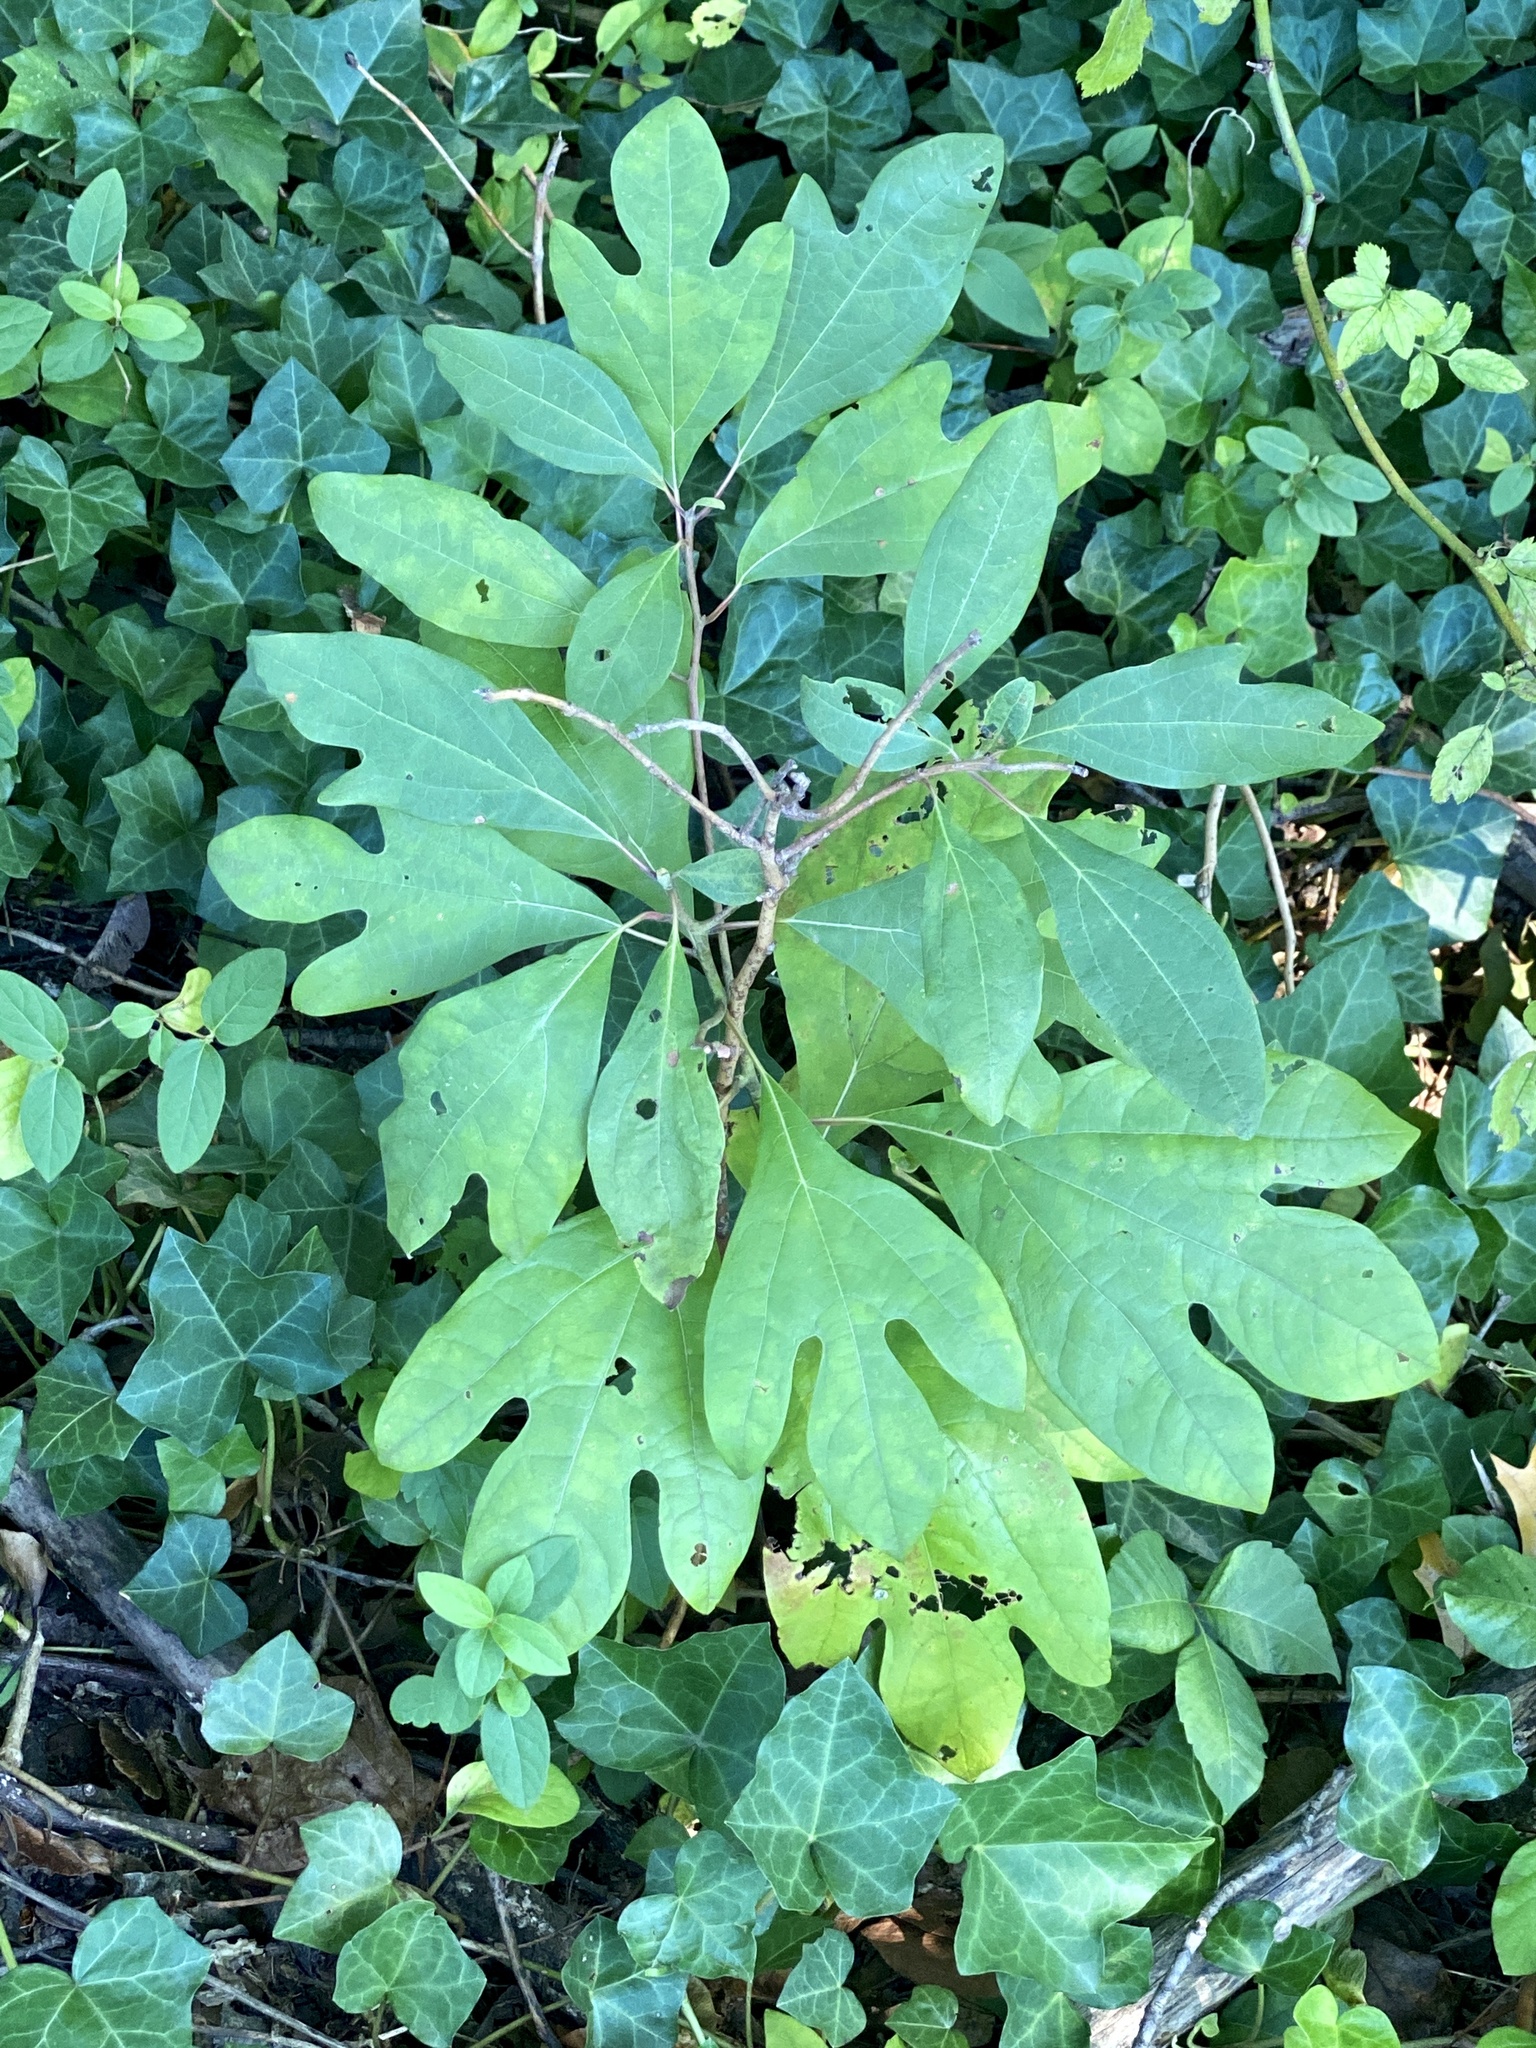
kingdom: Plantae
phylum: Tracheophyta
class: Magnoliopsida
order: Laurales
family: Lauraceae
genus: Sassafras
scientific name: Sassafras albidum
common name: Sassafras
